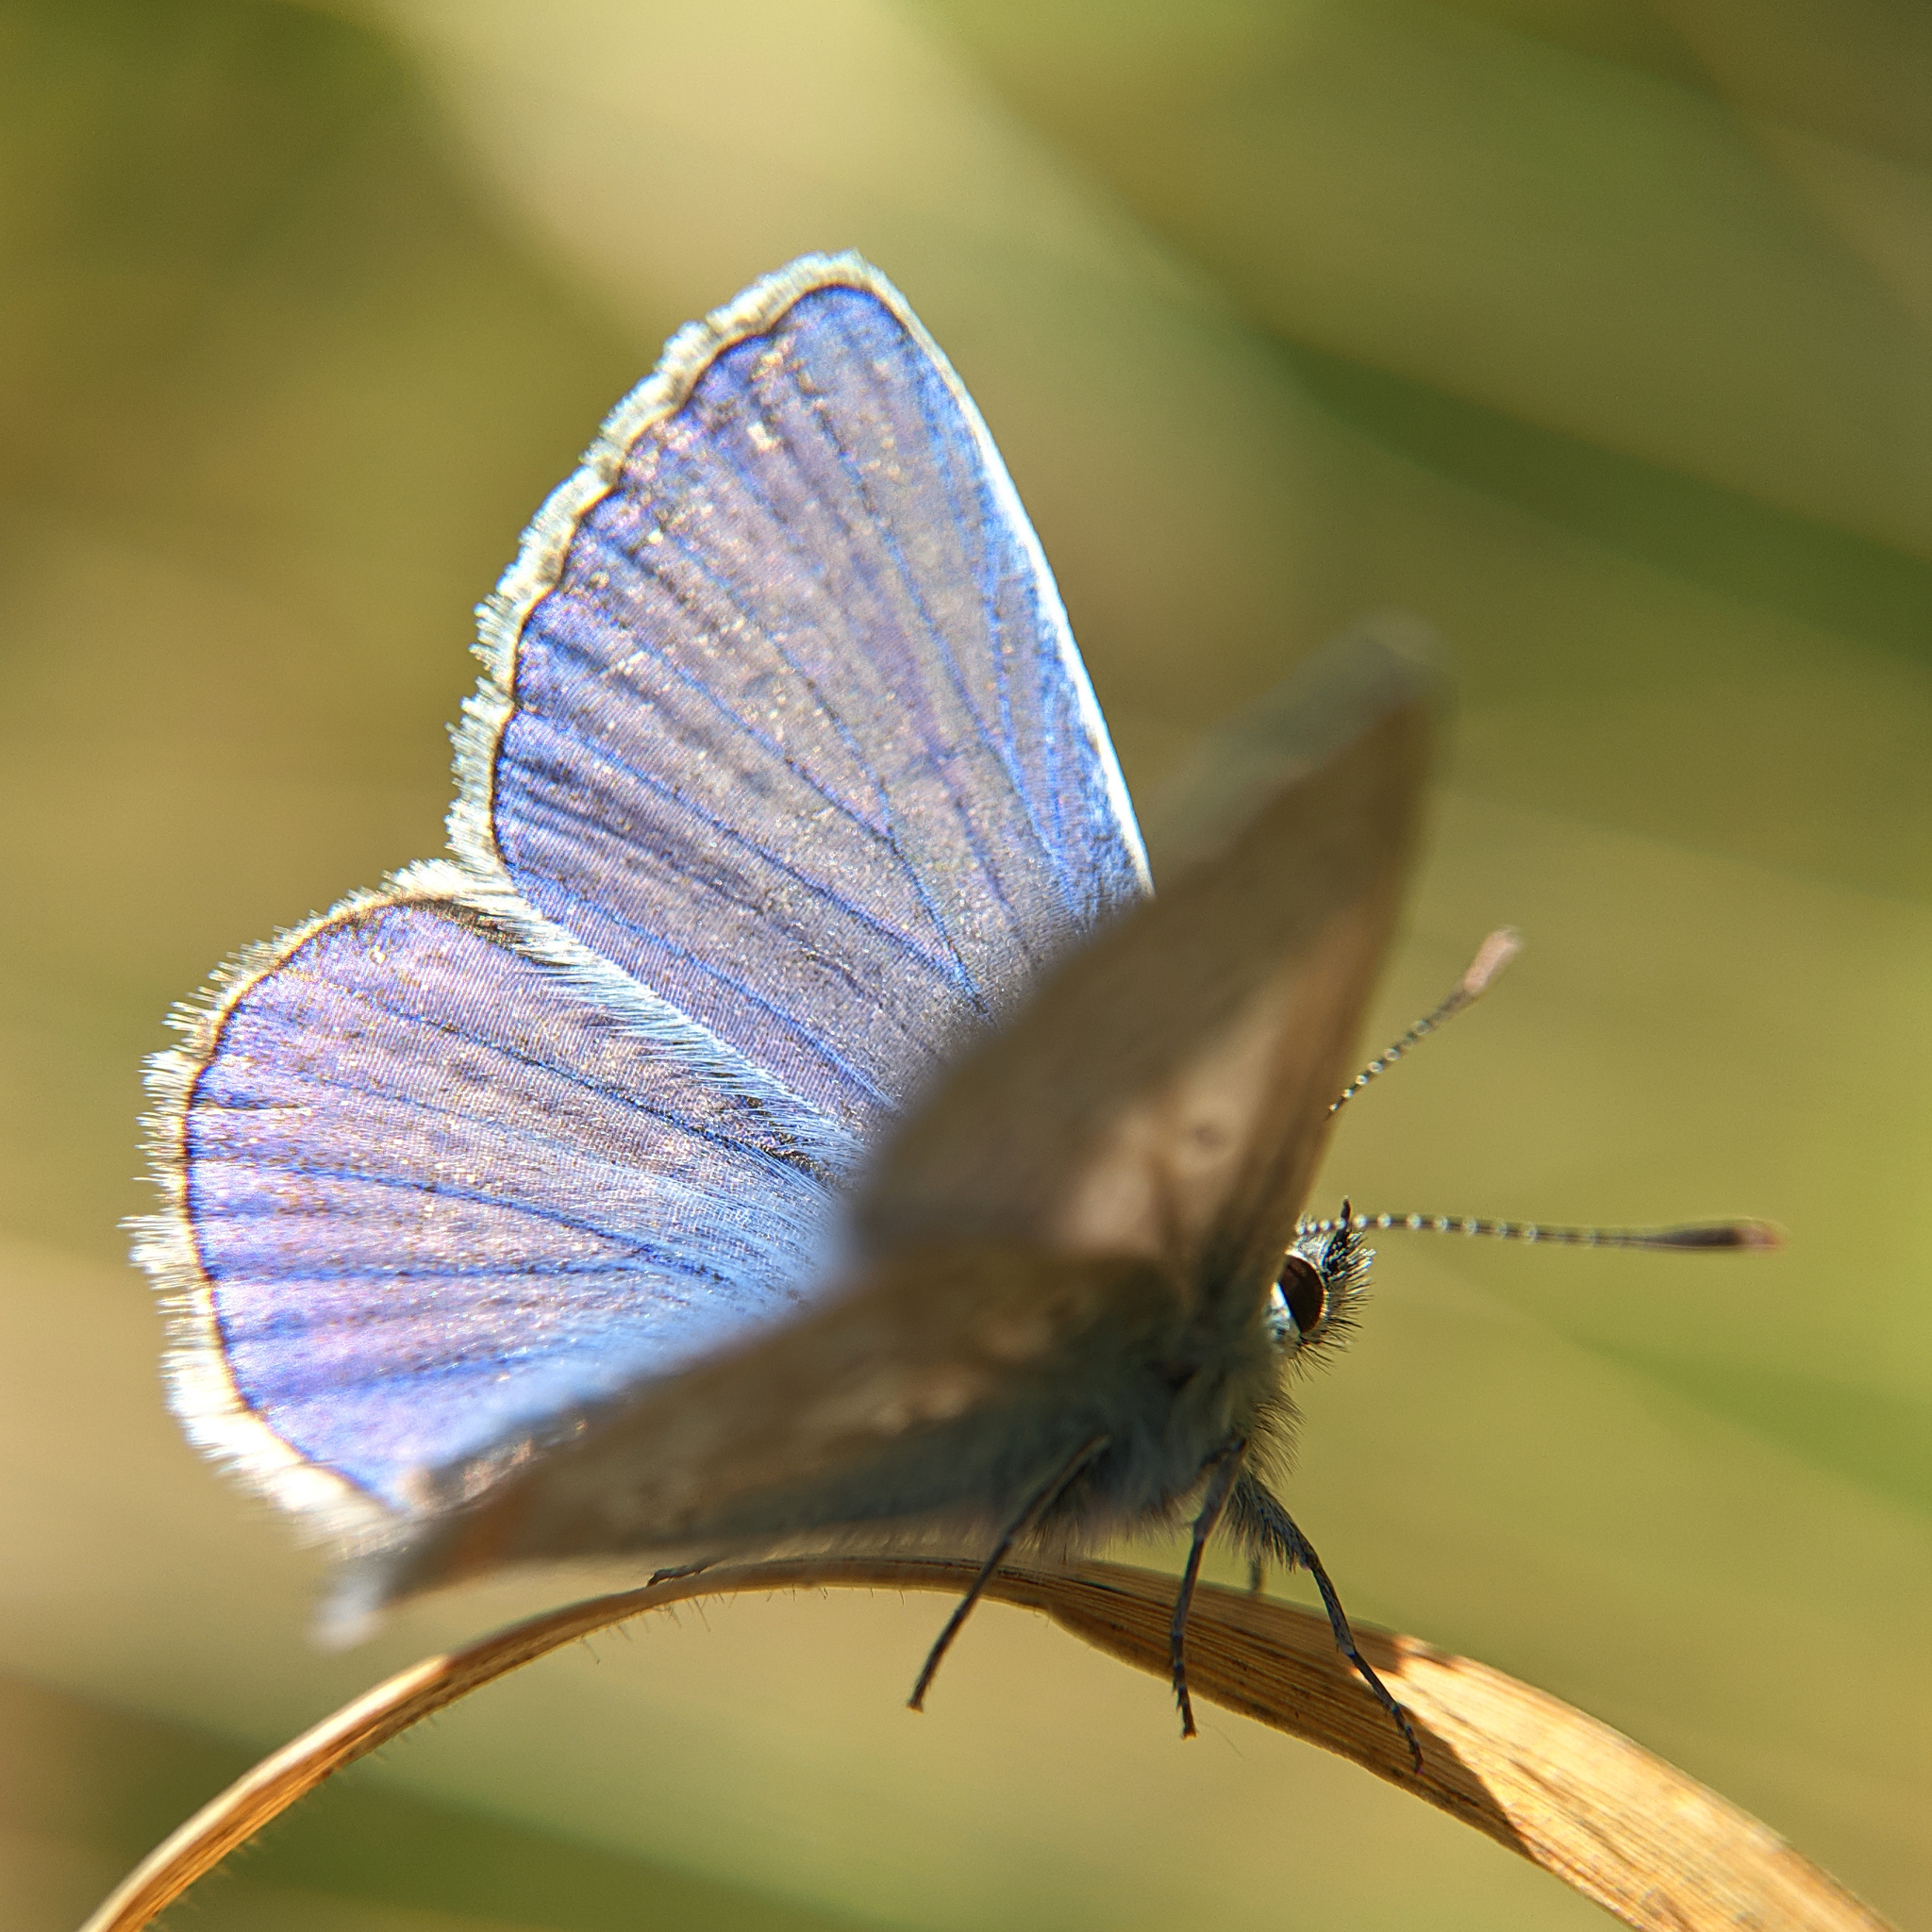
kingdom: Animalia
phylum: Arthropoda
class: Insecta
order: Lepidoptera
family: Lycaenidae
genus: Polyommatus
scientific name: Polyommatus icarus
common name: Common blue
